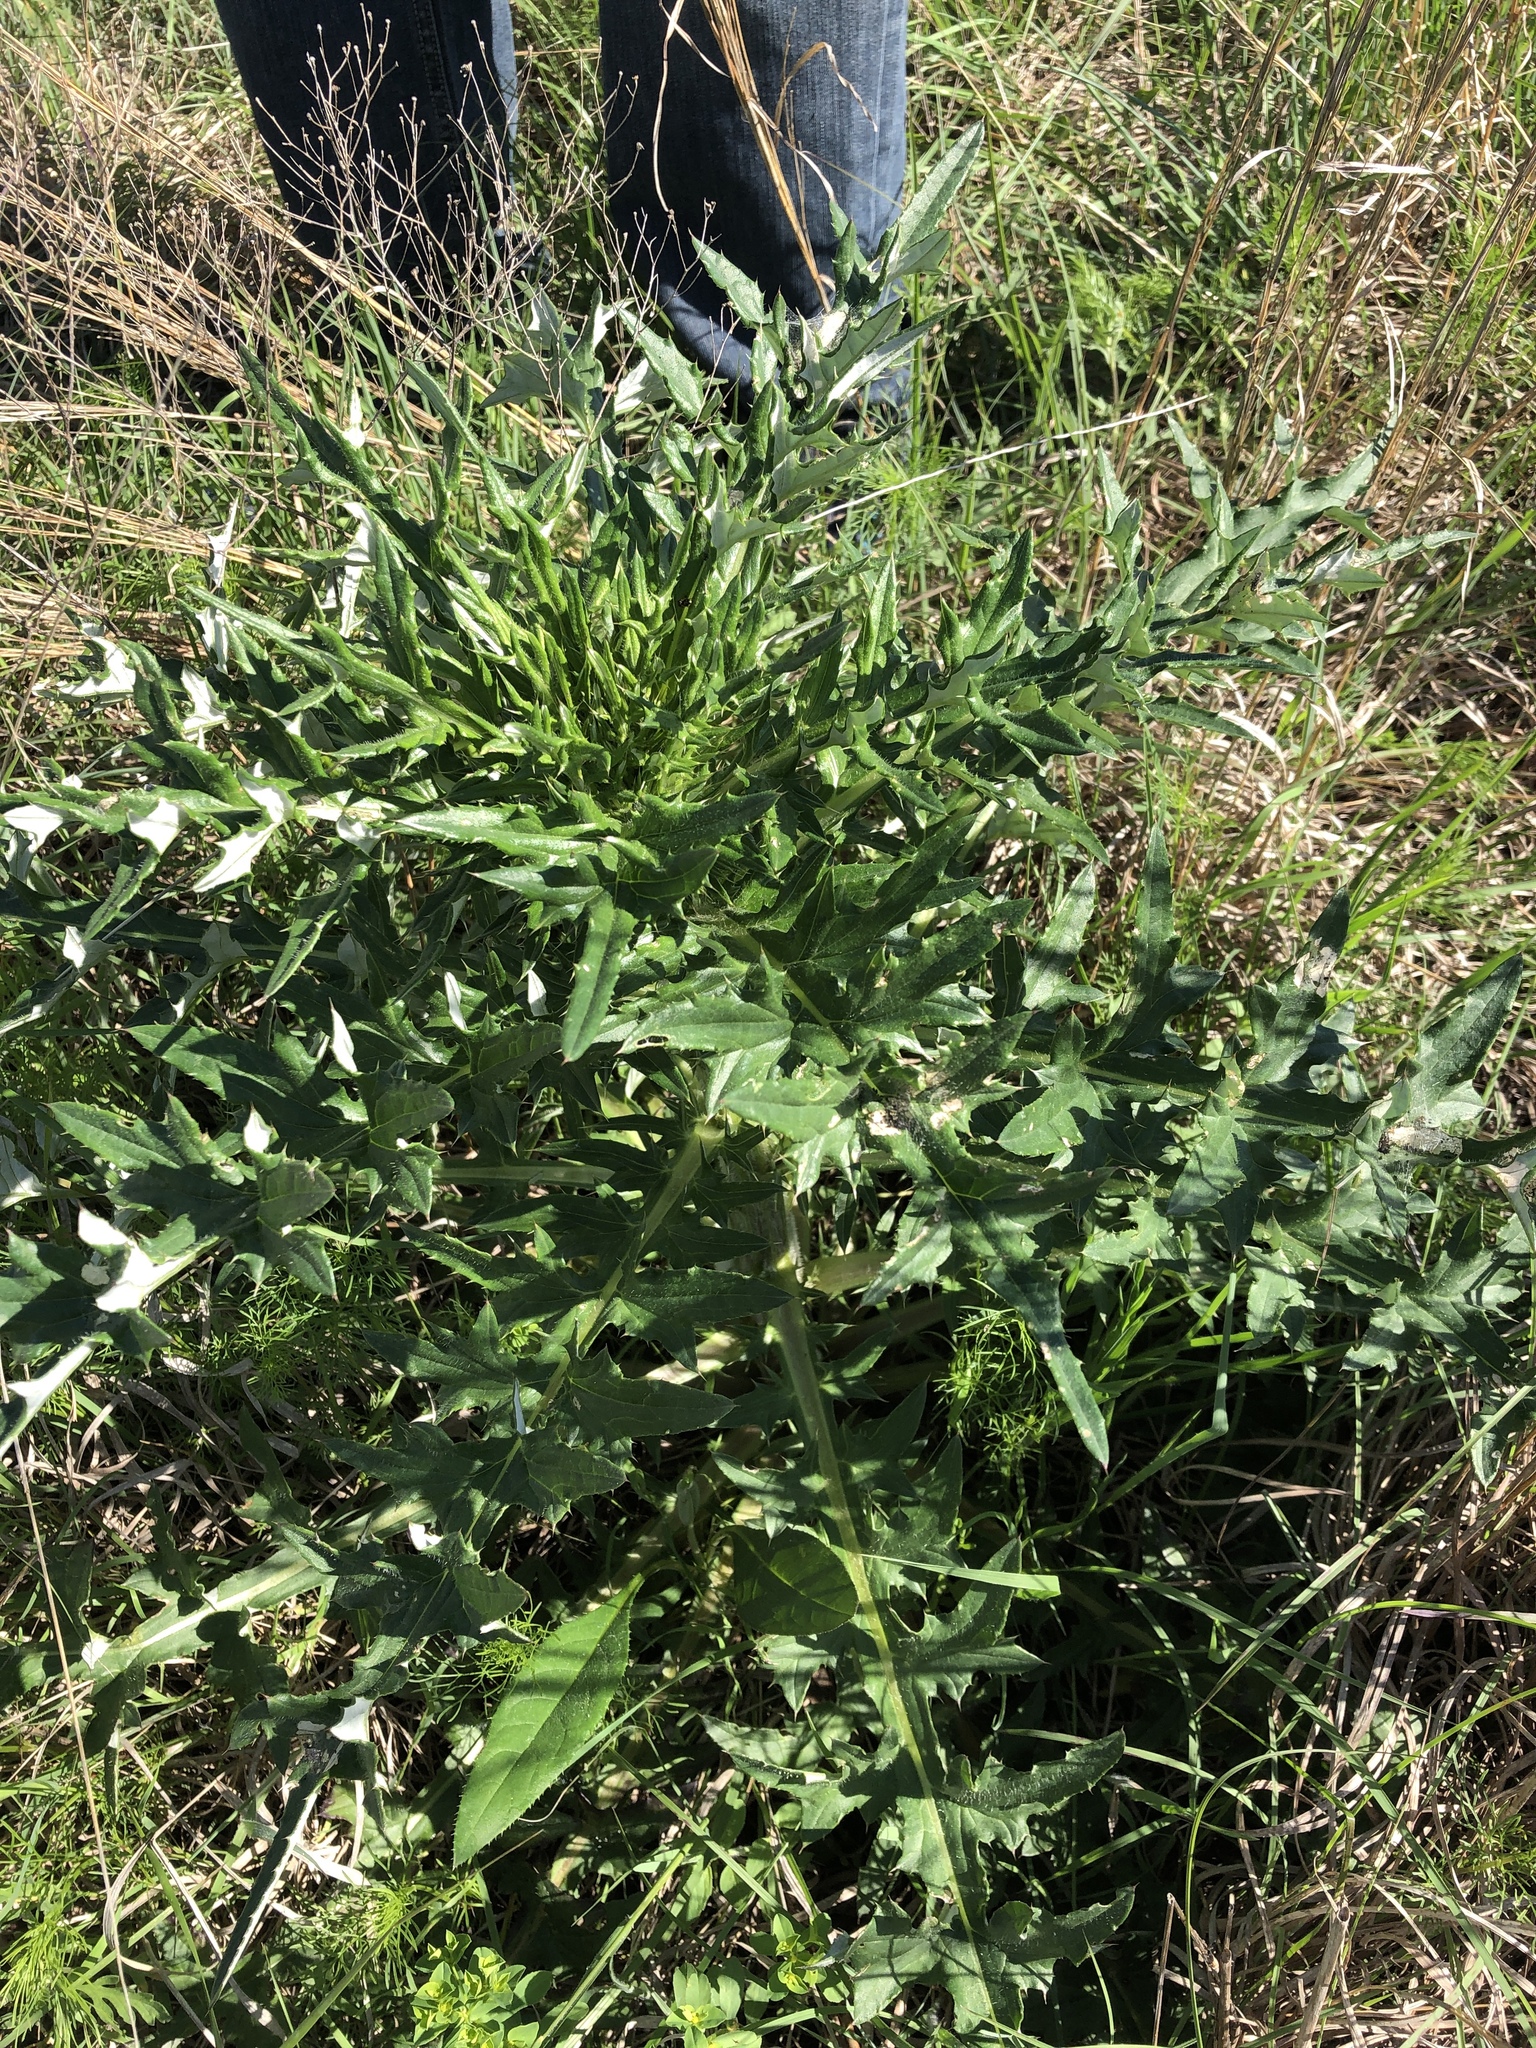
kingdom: Plantae
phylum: Tracheophyta
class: Magnoliopsida
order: Asterales
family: Asteraceae
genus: Cirsium
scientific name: Cirsium engelmannii
